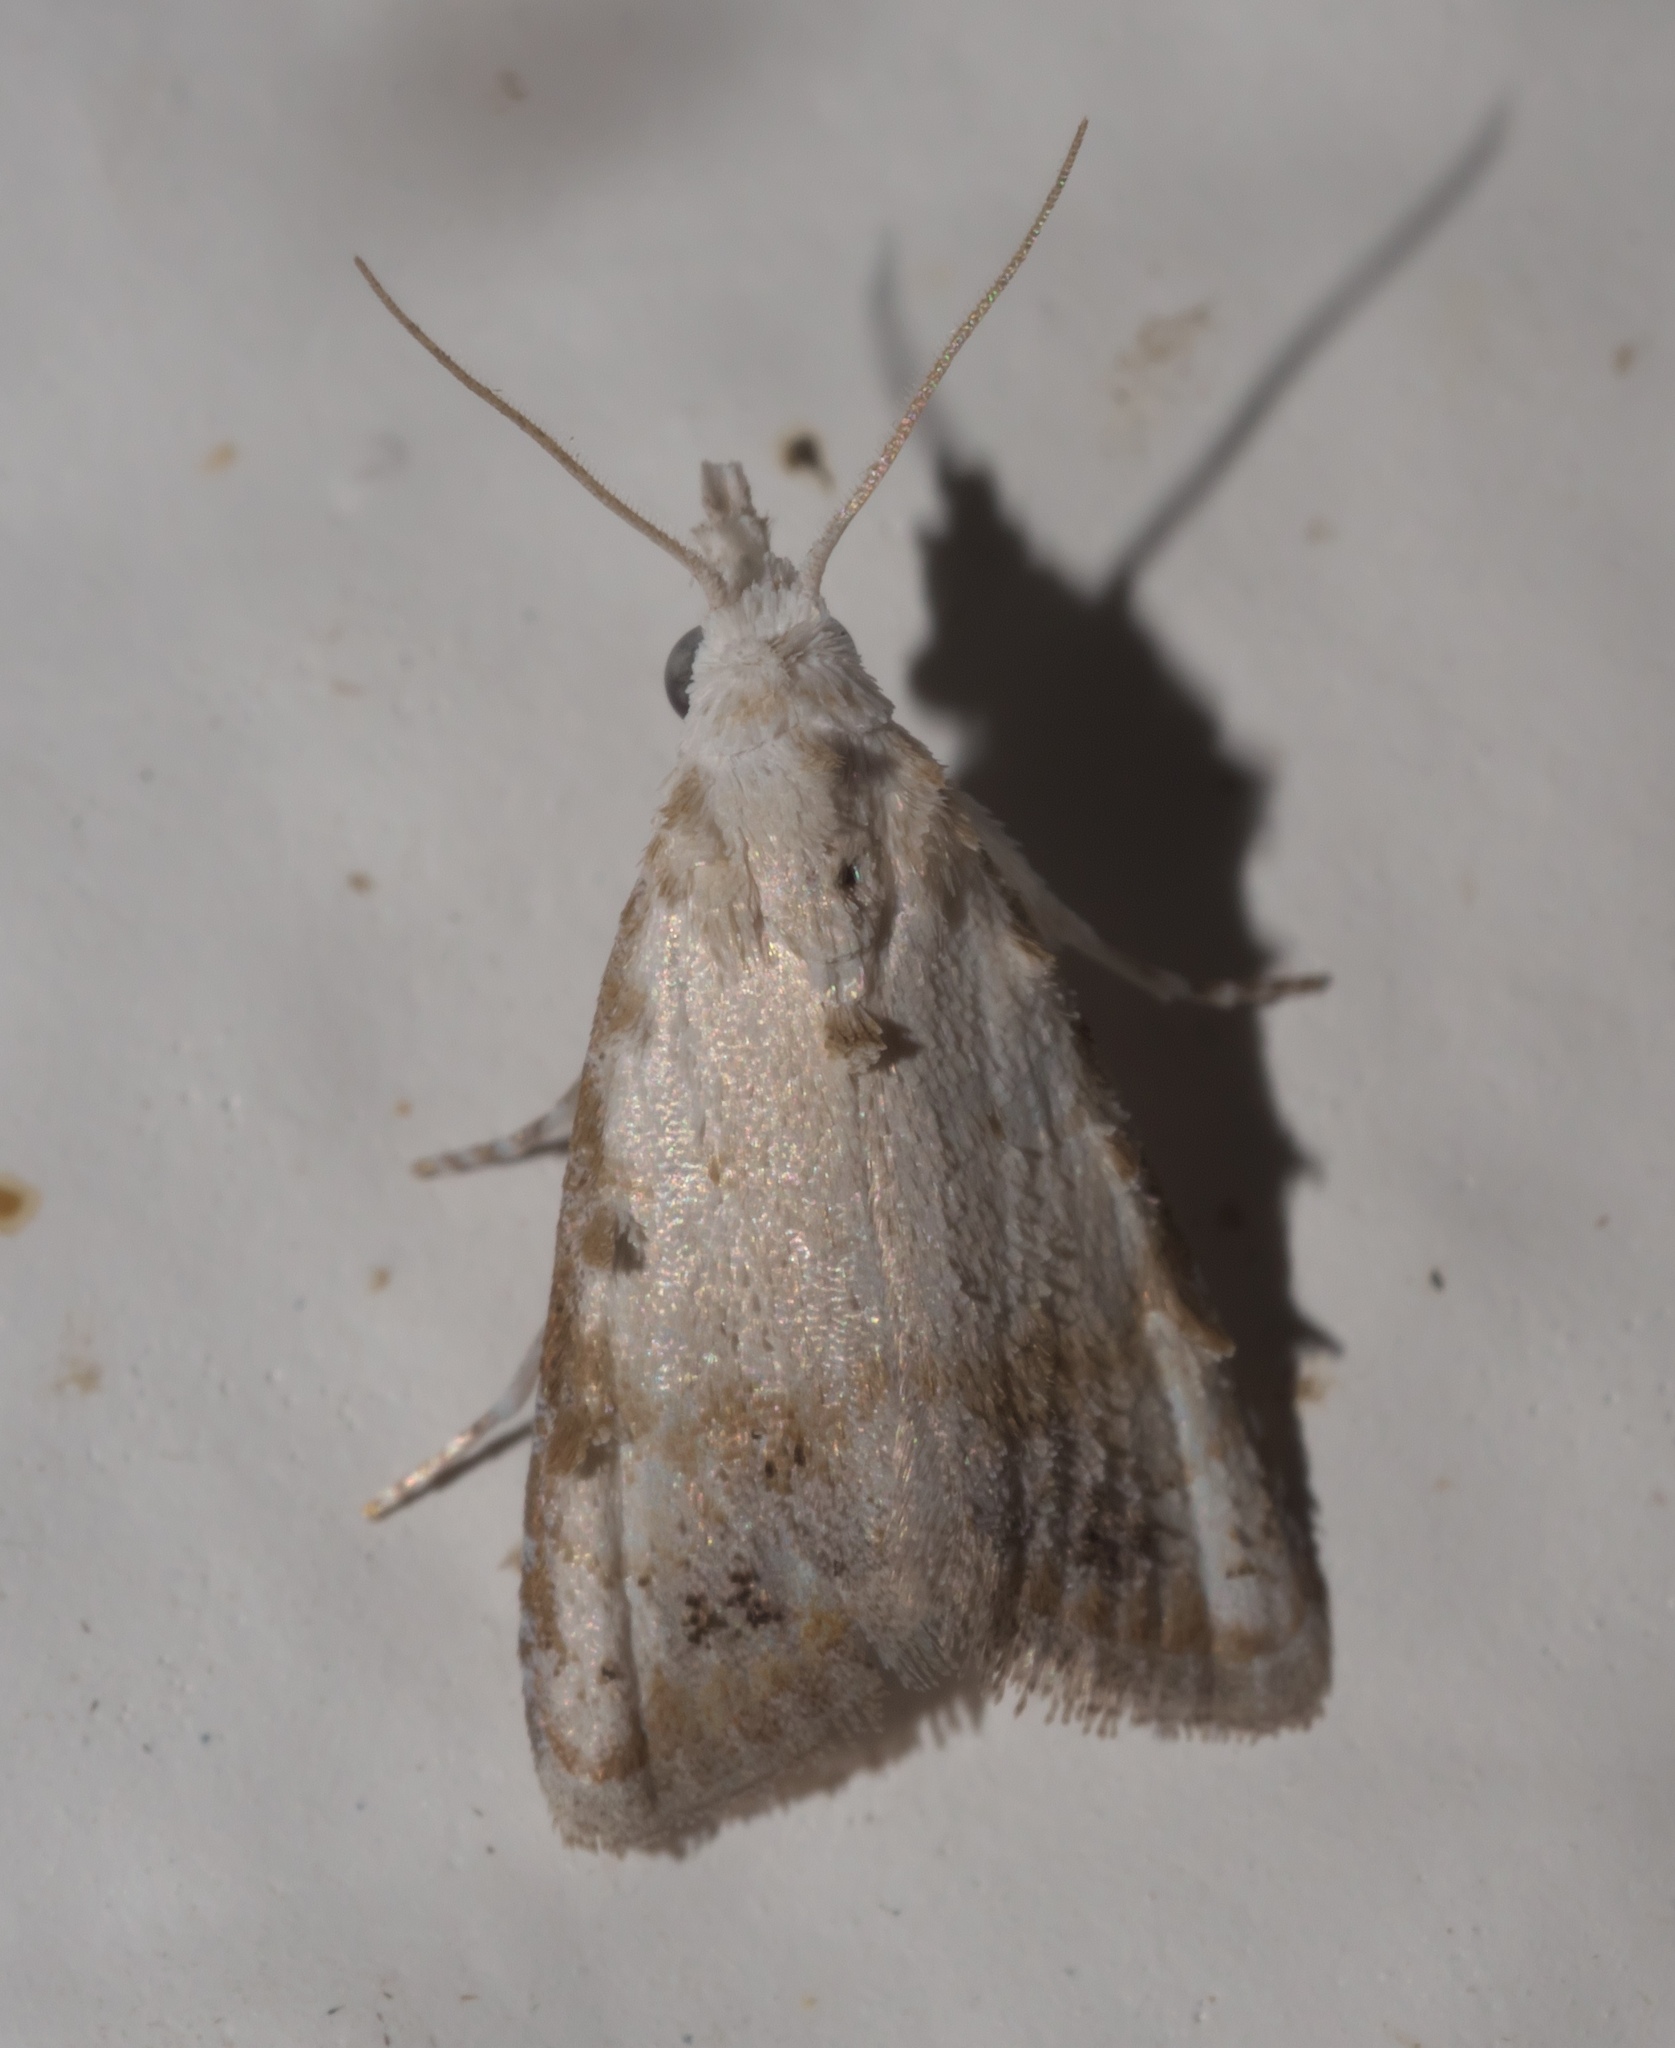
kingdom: Animalia
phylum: Arthropoda
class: Insecta
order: Lepidoptera
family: Nolidae
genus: Nola
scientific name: Nola cereella
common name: Sorghum webworm moth
